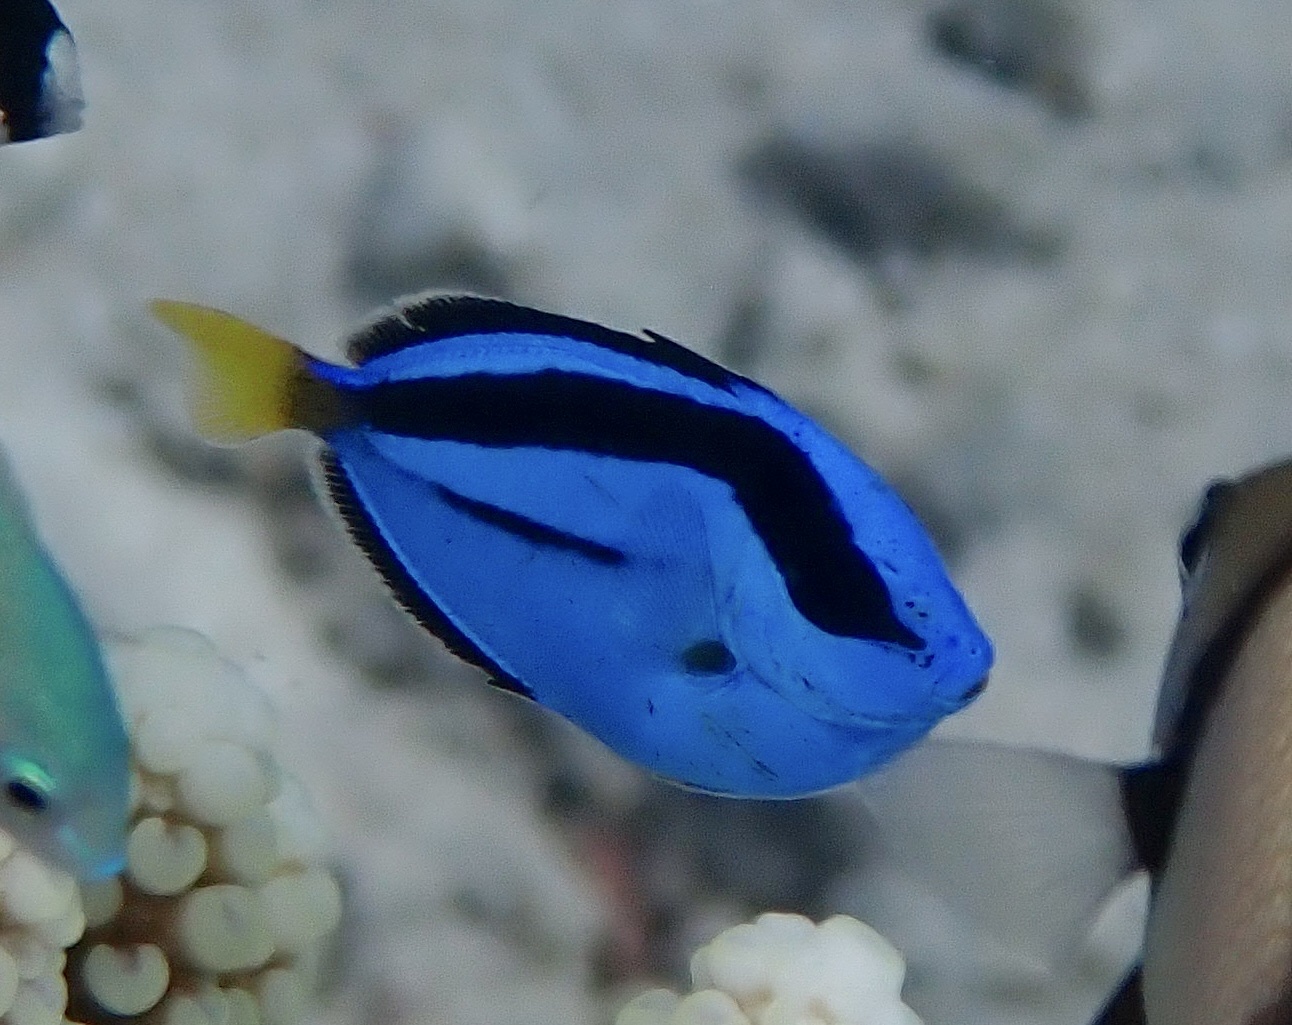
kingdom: Animalia
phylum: Chordata
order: Perciformes
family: Acanthuridae
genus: Paracanthurus
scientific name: Paracanthurus hepatus
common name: Palette surgeonfish
